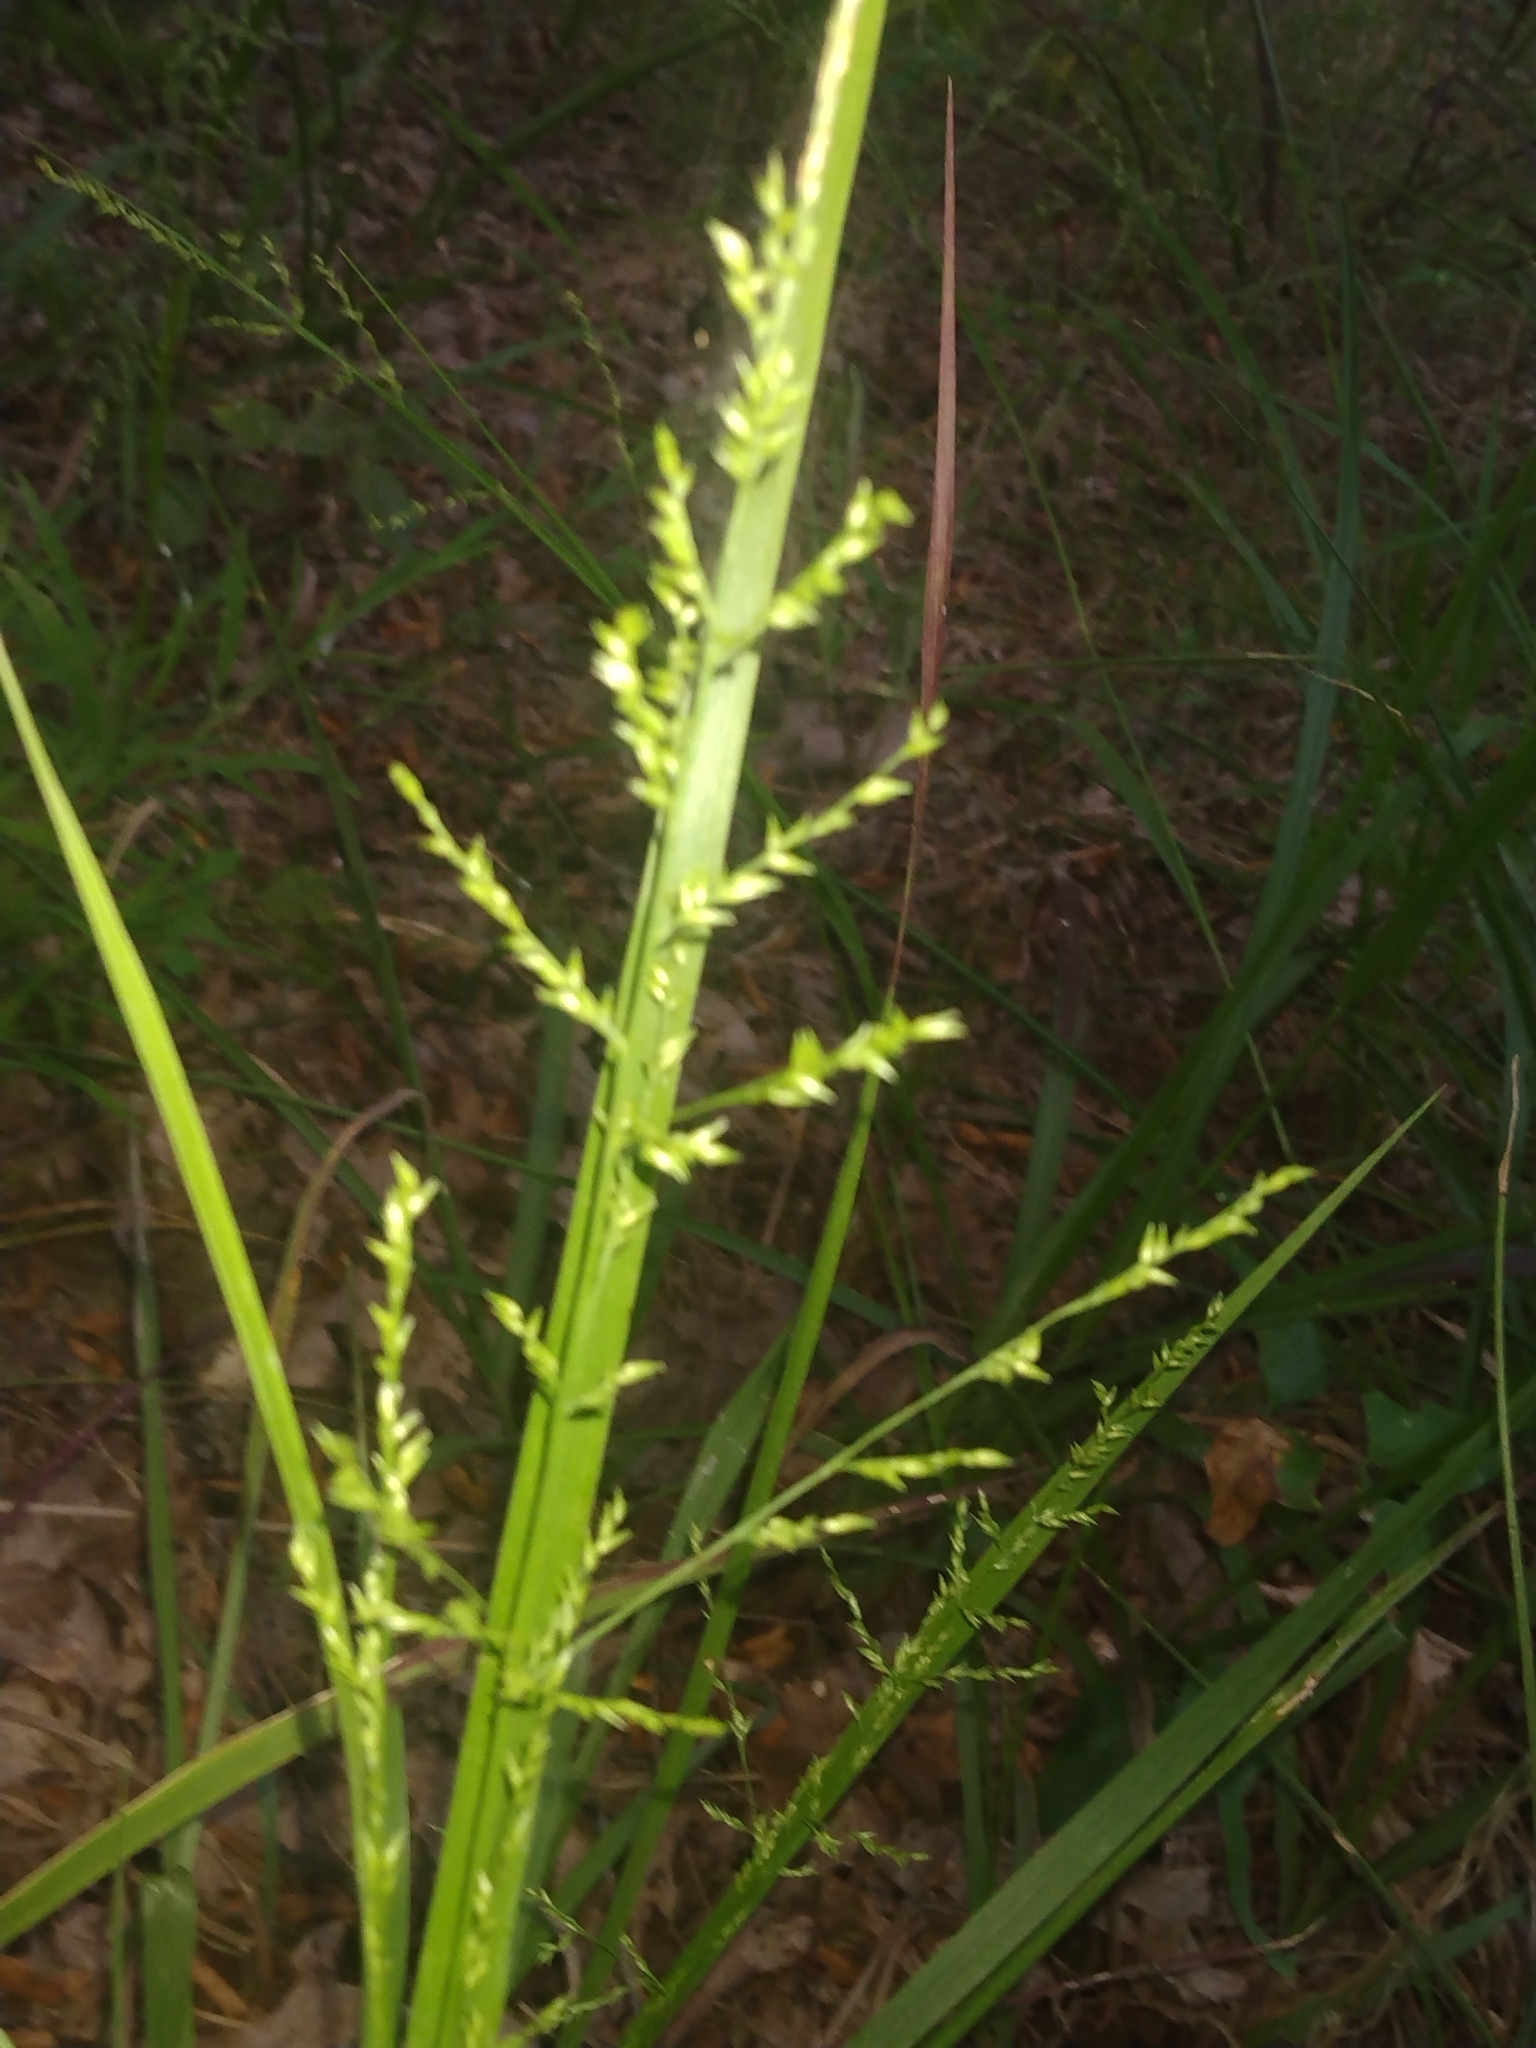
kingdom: Plantae
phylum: Tracheophyta
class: Liliopsida
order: Poales
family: Poaceae
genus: Coleataenia
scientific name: Coleataenia anceps
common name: Beaked panic grass
